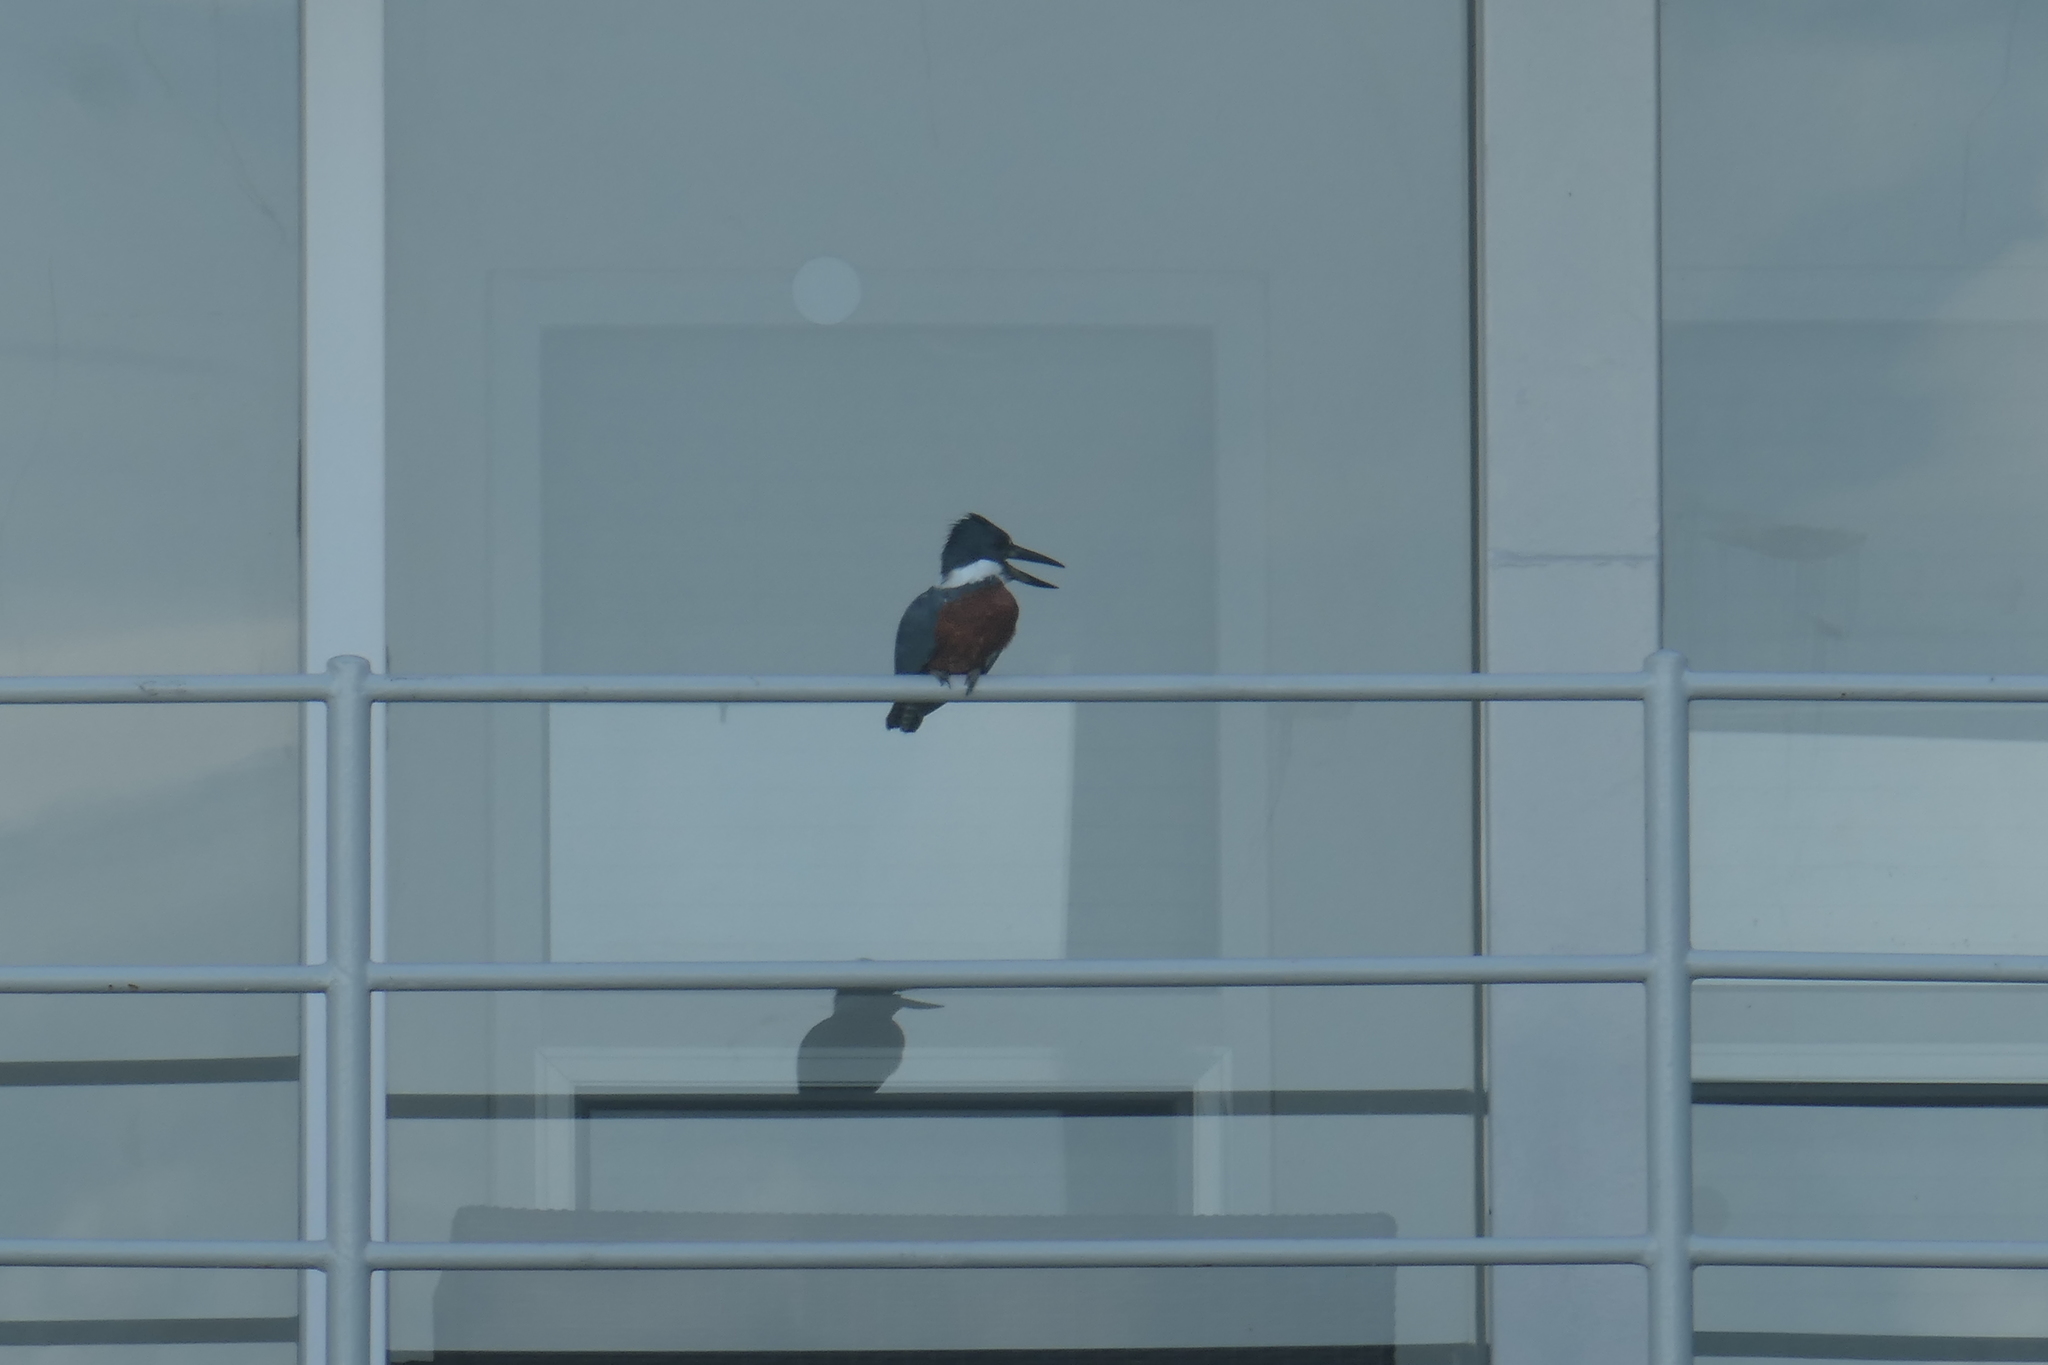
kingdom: Animalia
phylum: Chordata
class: Aves
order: Coraciiformes
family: Alcedinidae
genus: Megaceryle
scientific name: Megaceryle torquata
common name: Ringed kingfisher
